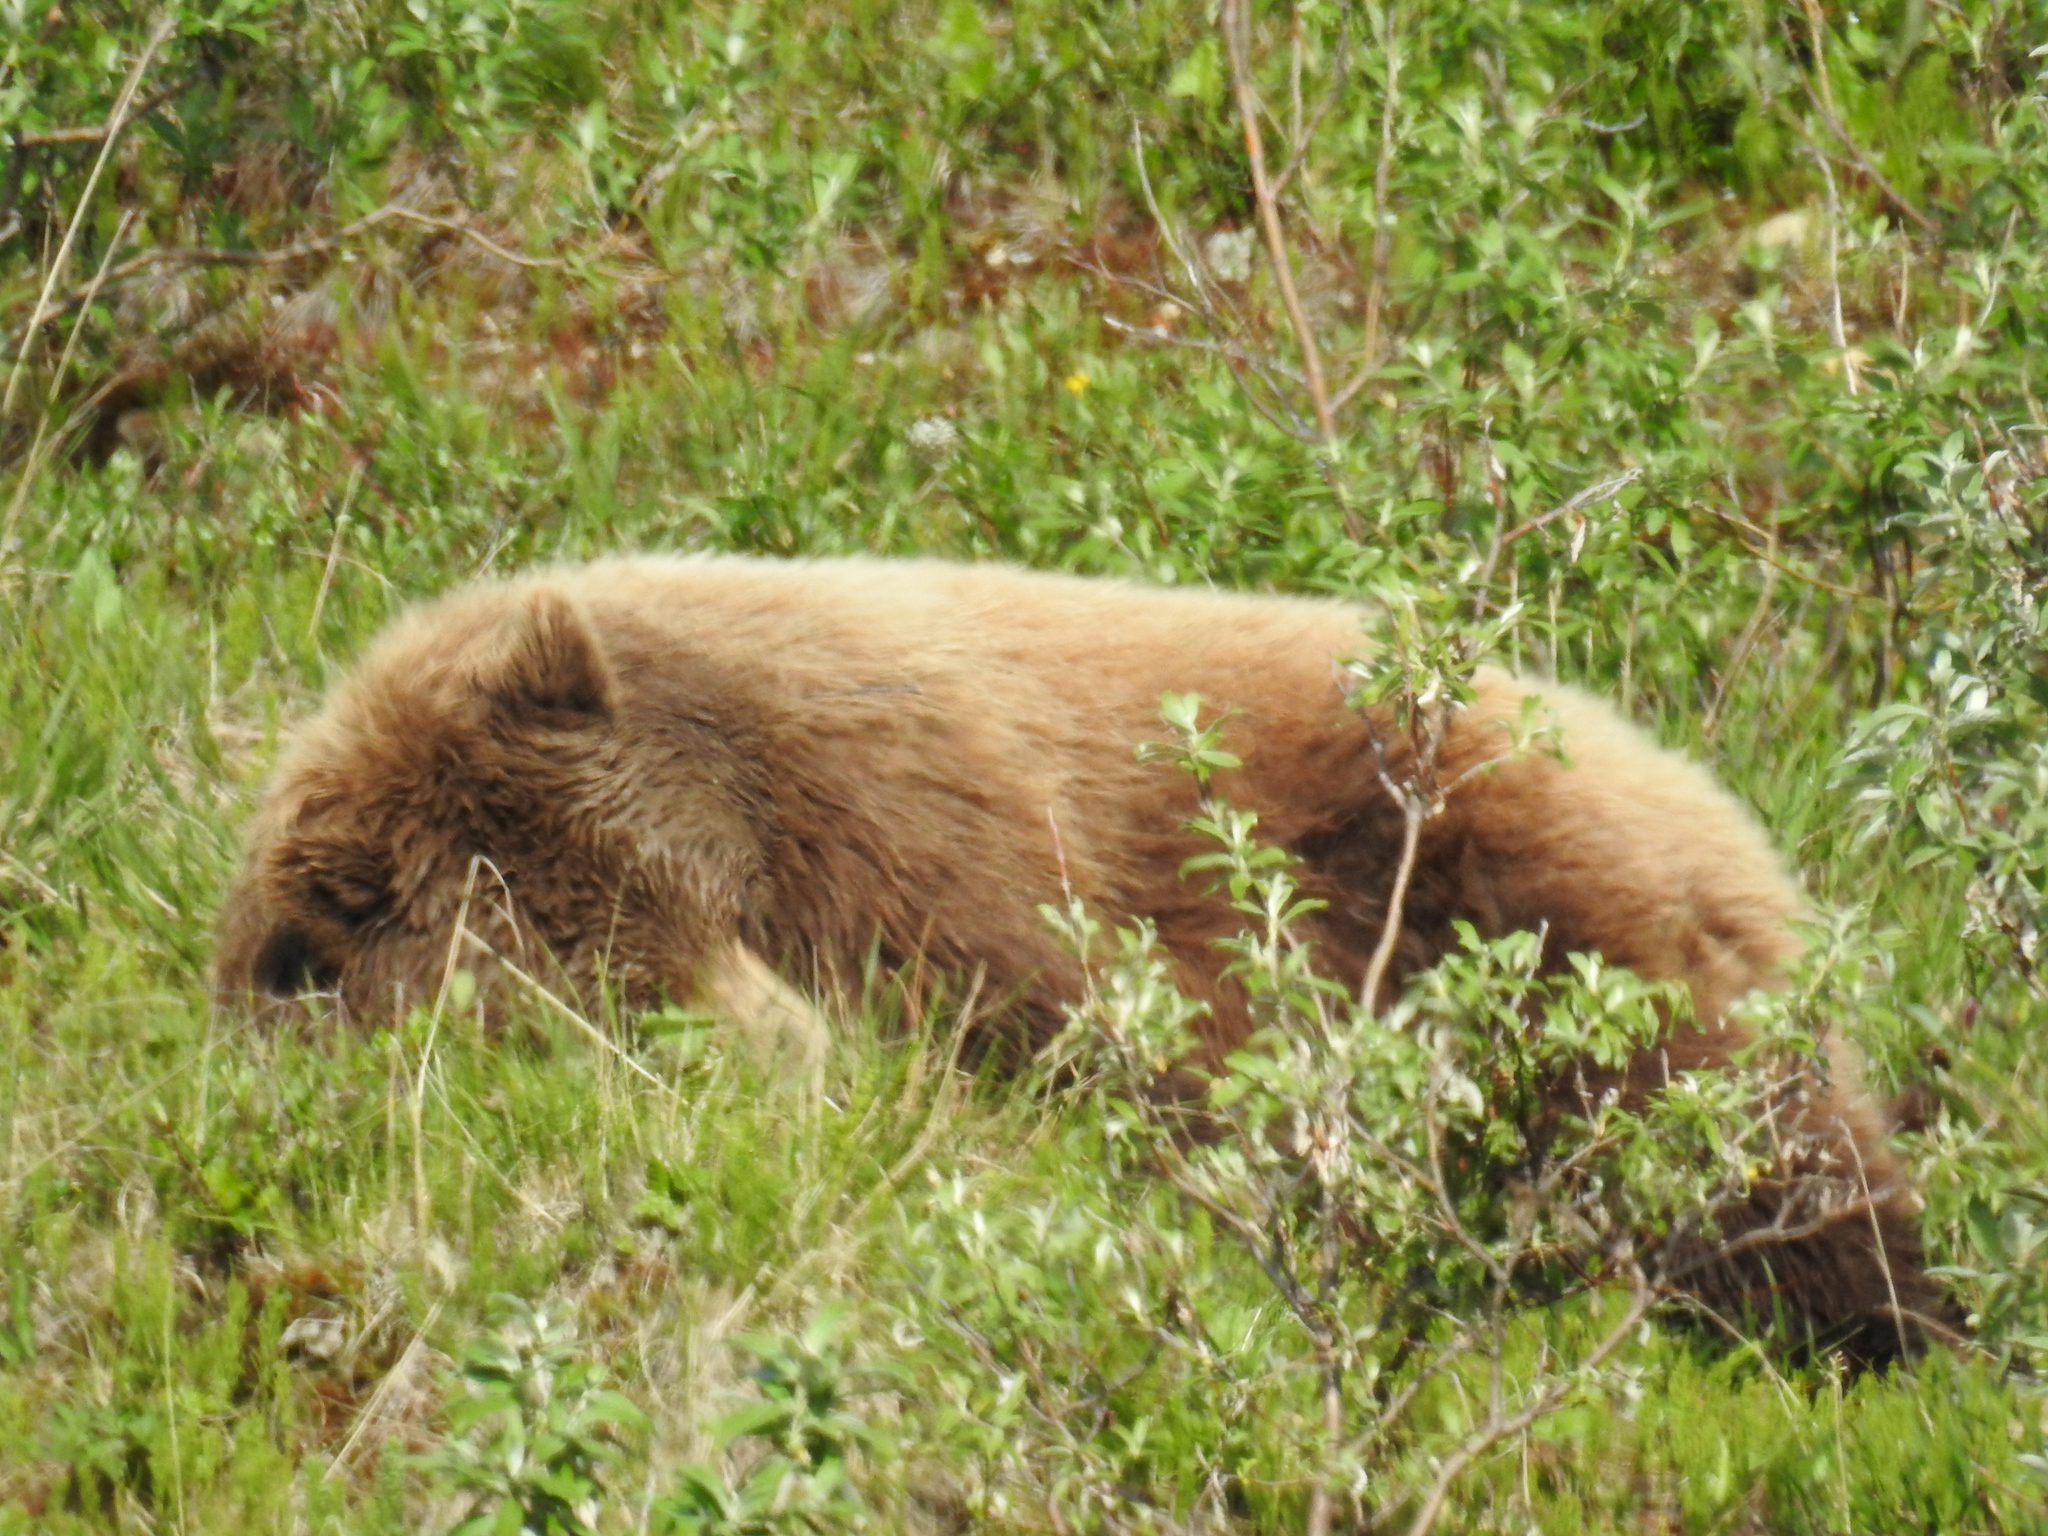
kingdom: Animalia
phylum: Chordata
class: Mammalia
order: Carnivora
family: Ursidae
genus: Ursus
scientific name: Ursus arctos
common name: Brown bear
